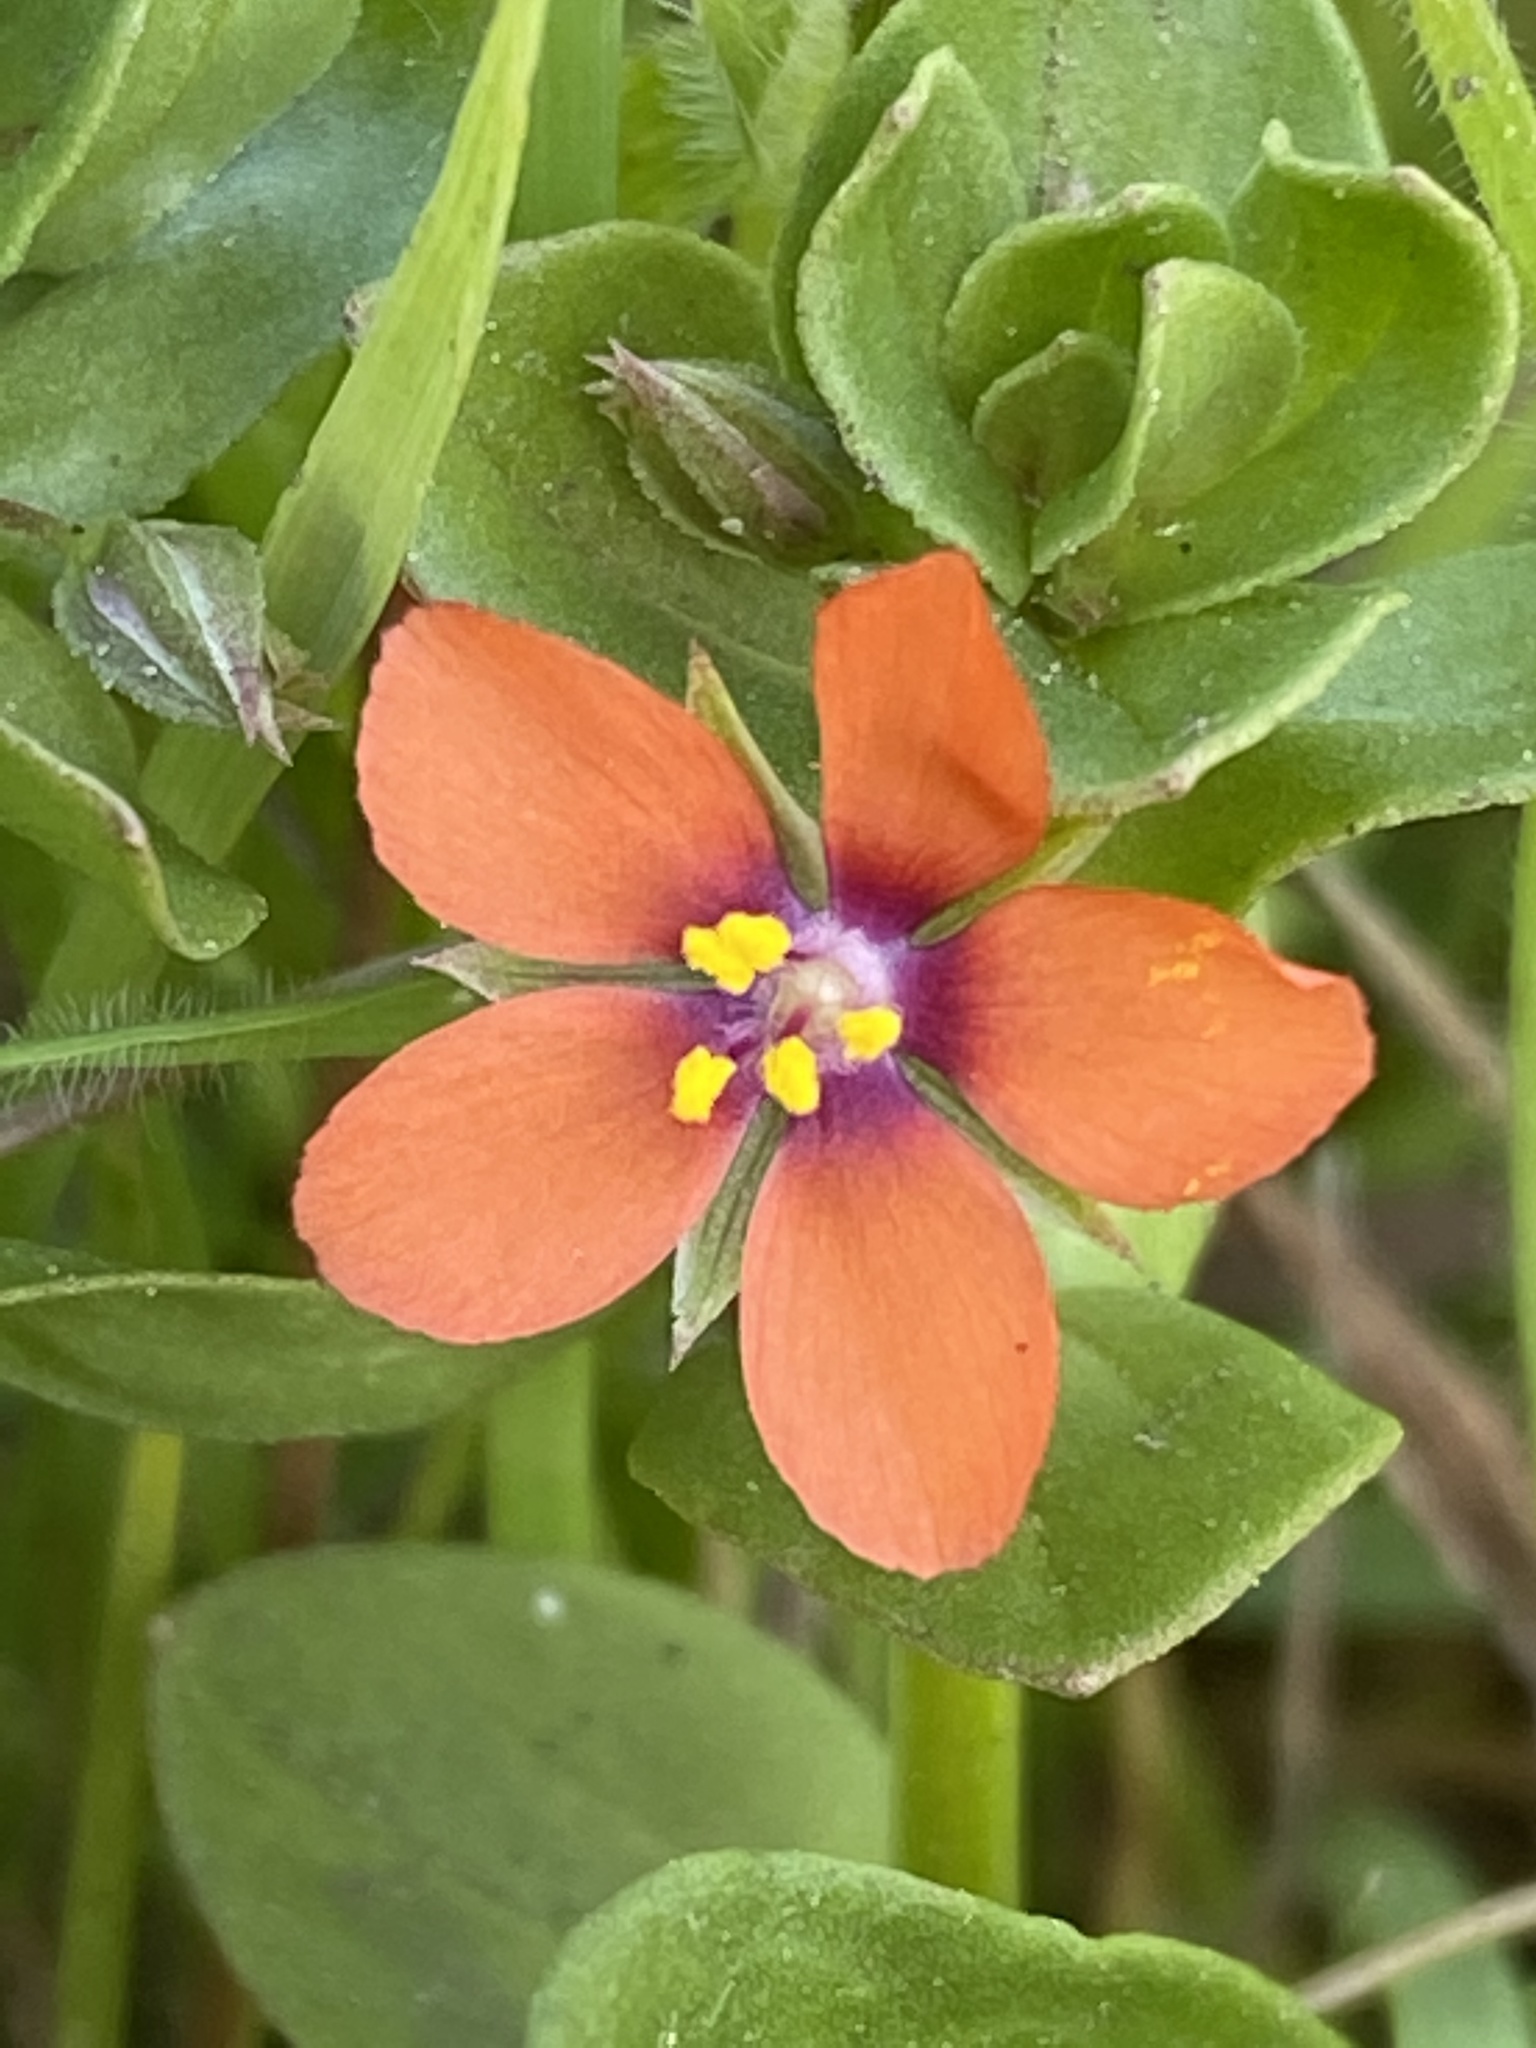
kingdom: Plantae
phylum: Tracheophyta
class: Magnoliopsida
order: Ericales
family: Primulaceae
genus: Lysimachia
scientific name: Lysimachia arvensis
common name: Scarlet pimpernel
